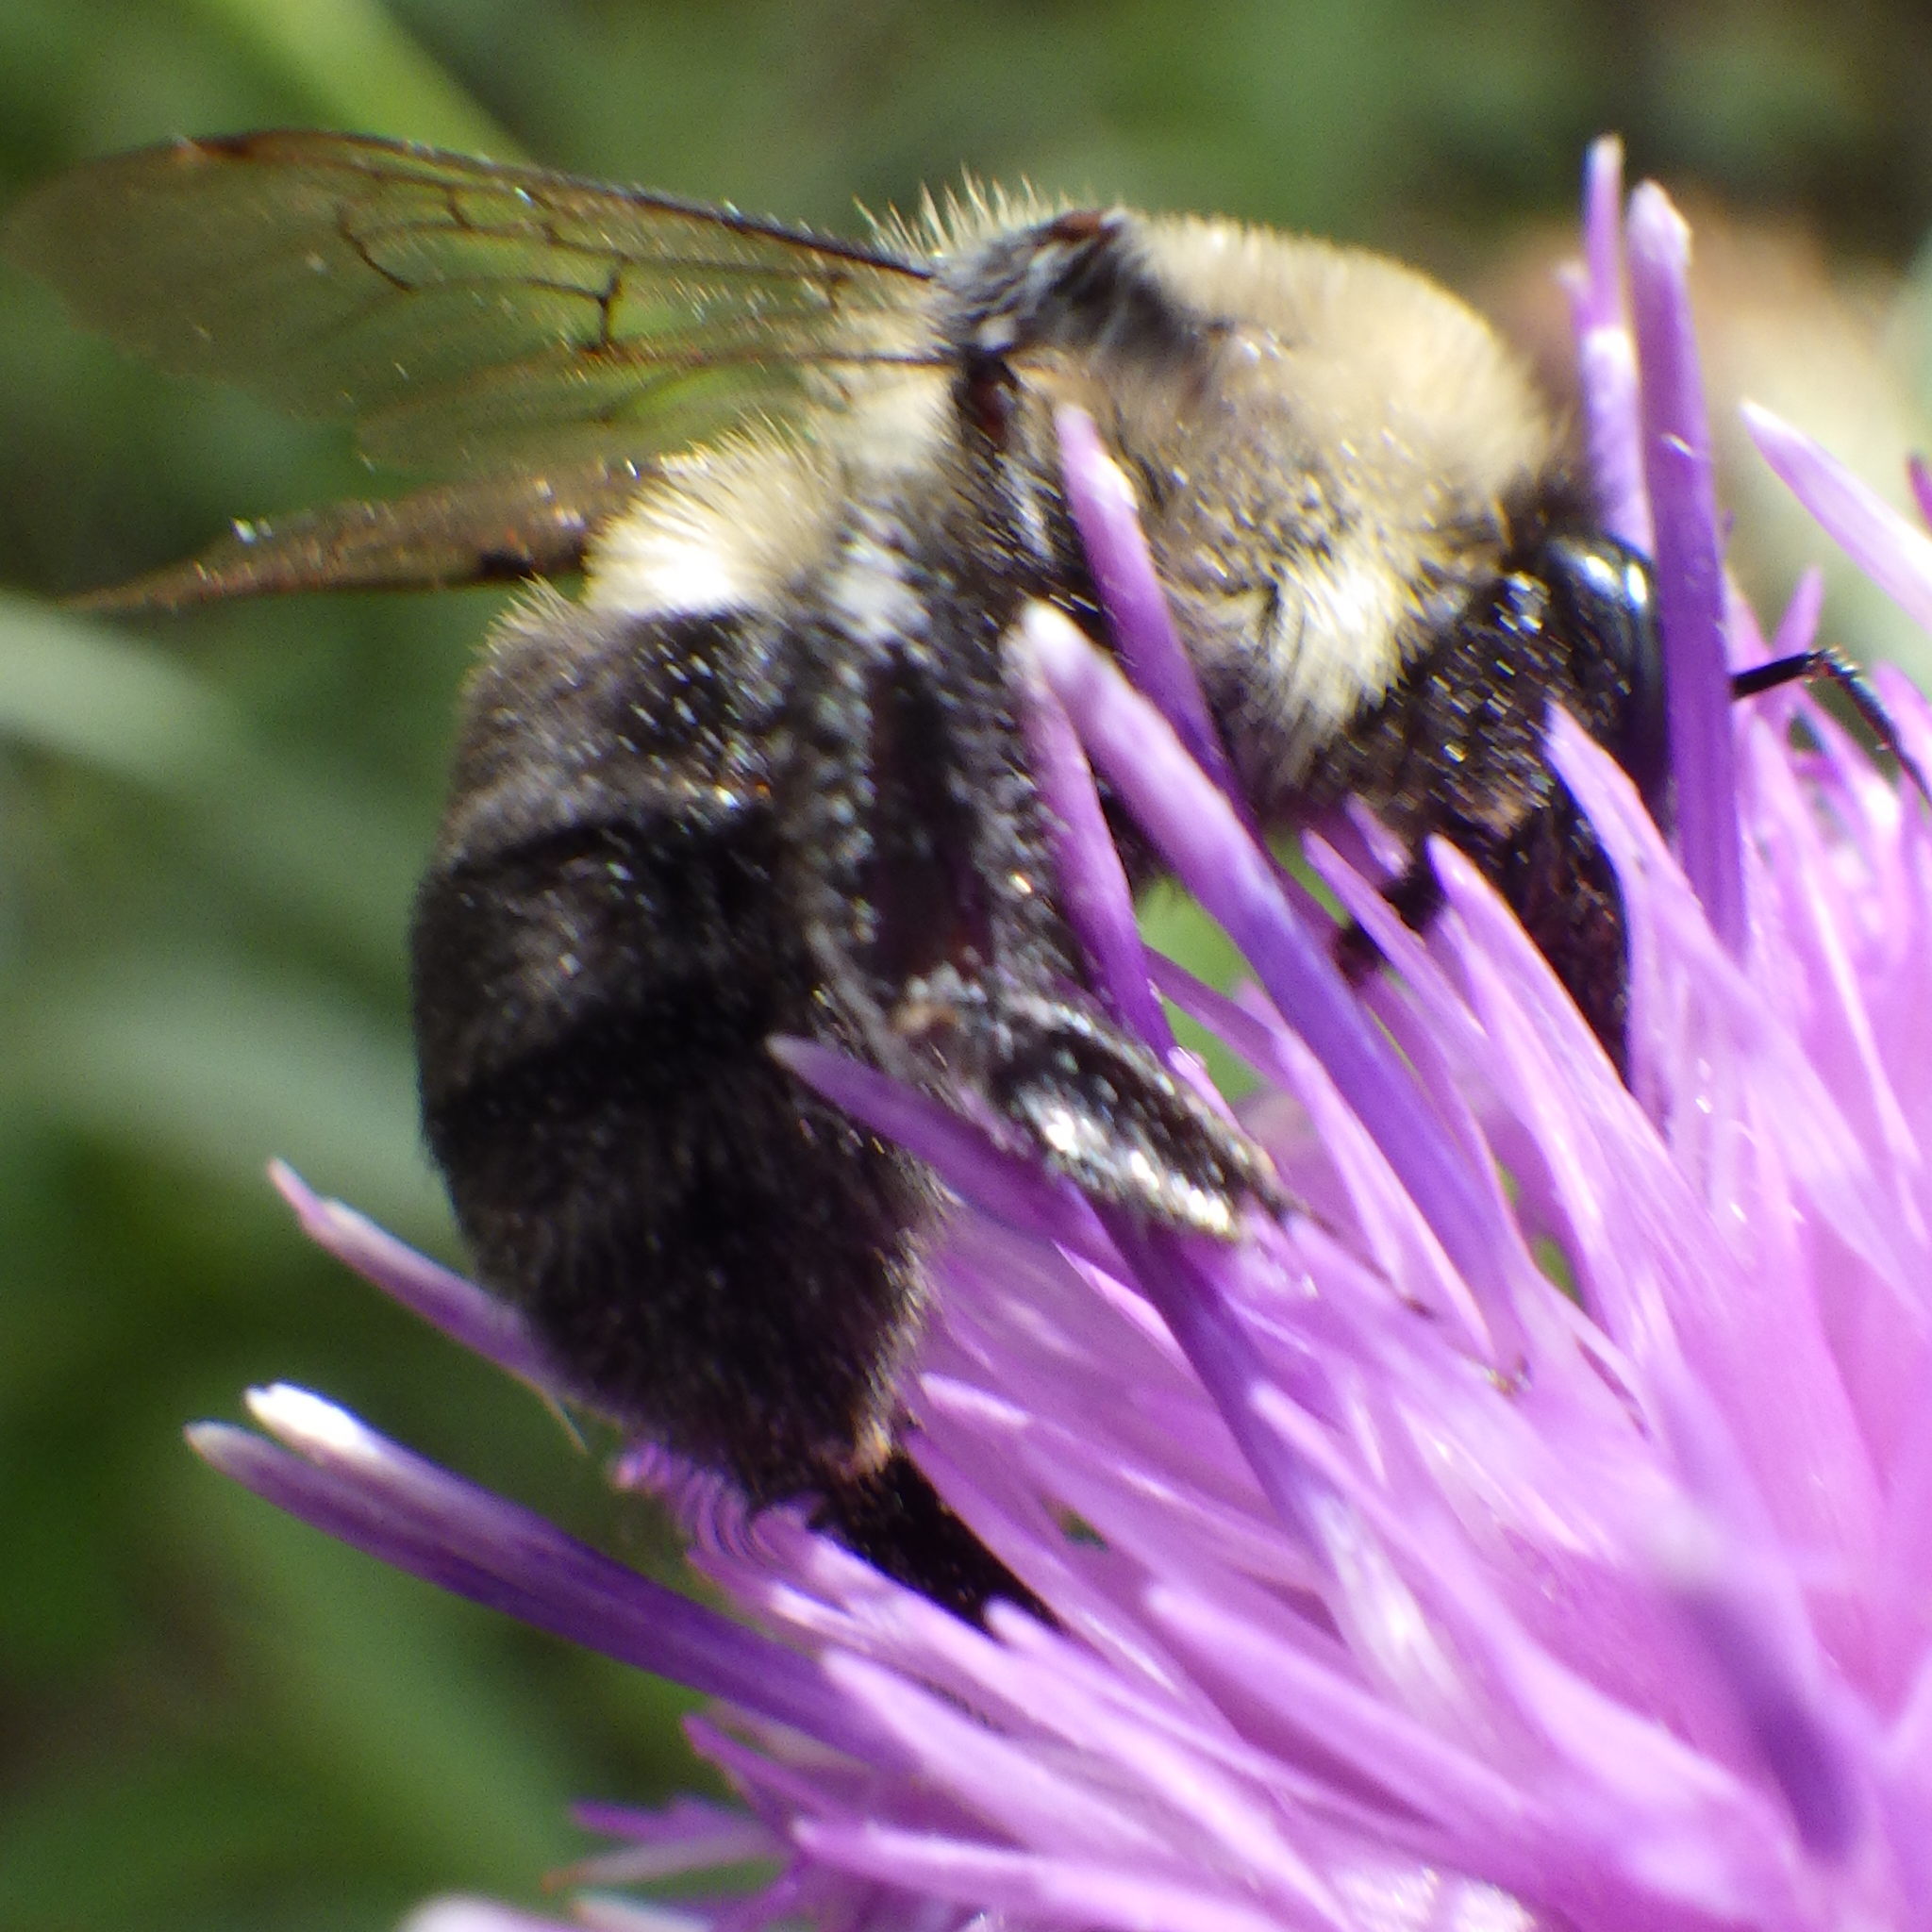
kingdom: Animalia
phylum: Arthropoda
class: Insecta
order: Hymenoptera
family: Apidae
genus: Bombus
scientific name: Bombus impatiens
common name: Common eastern bumble bee
